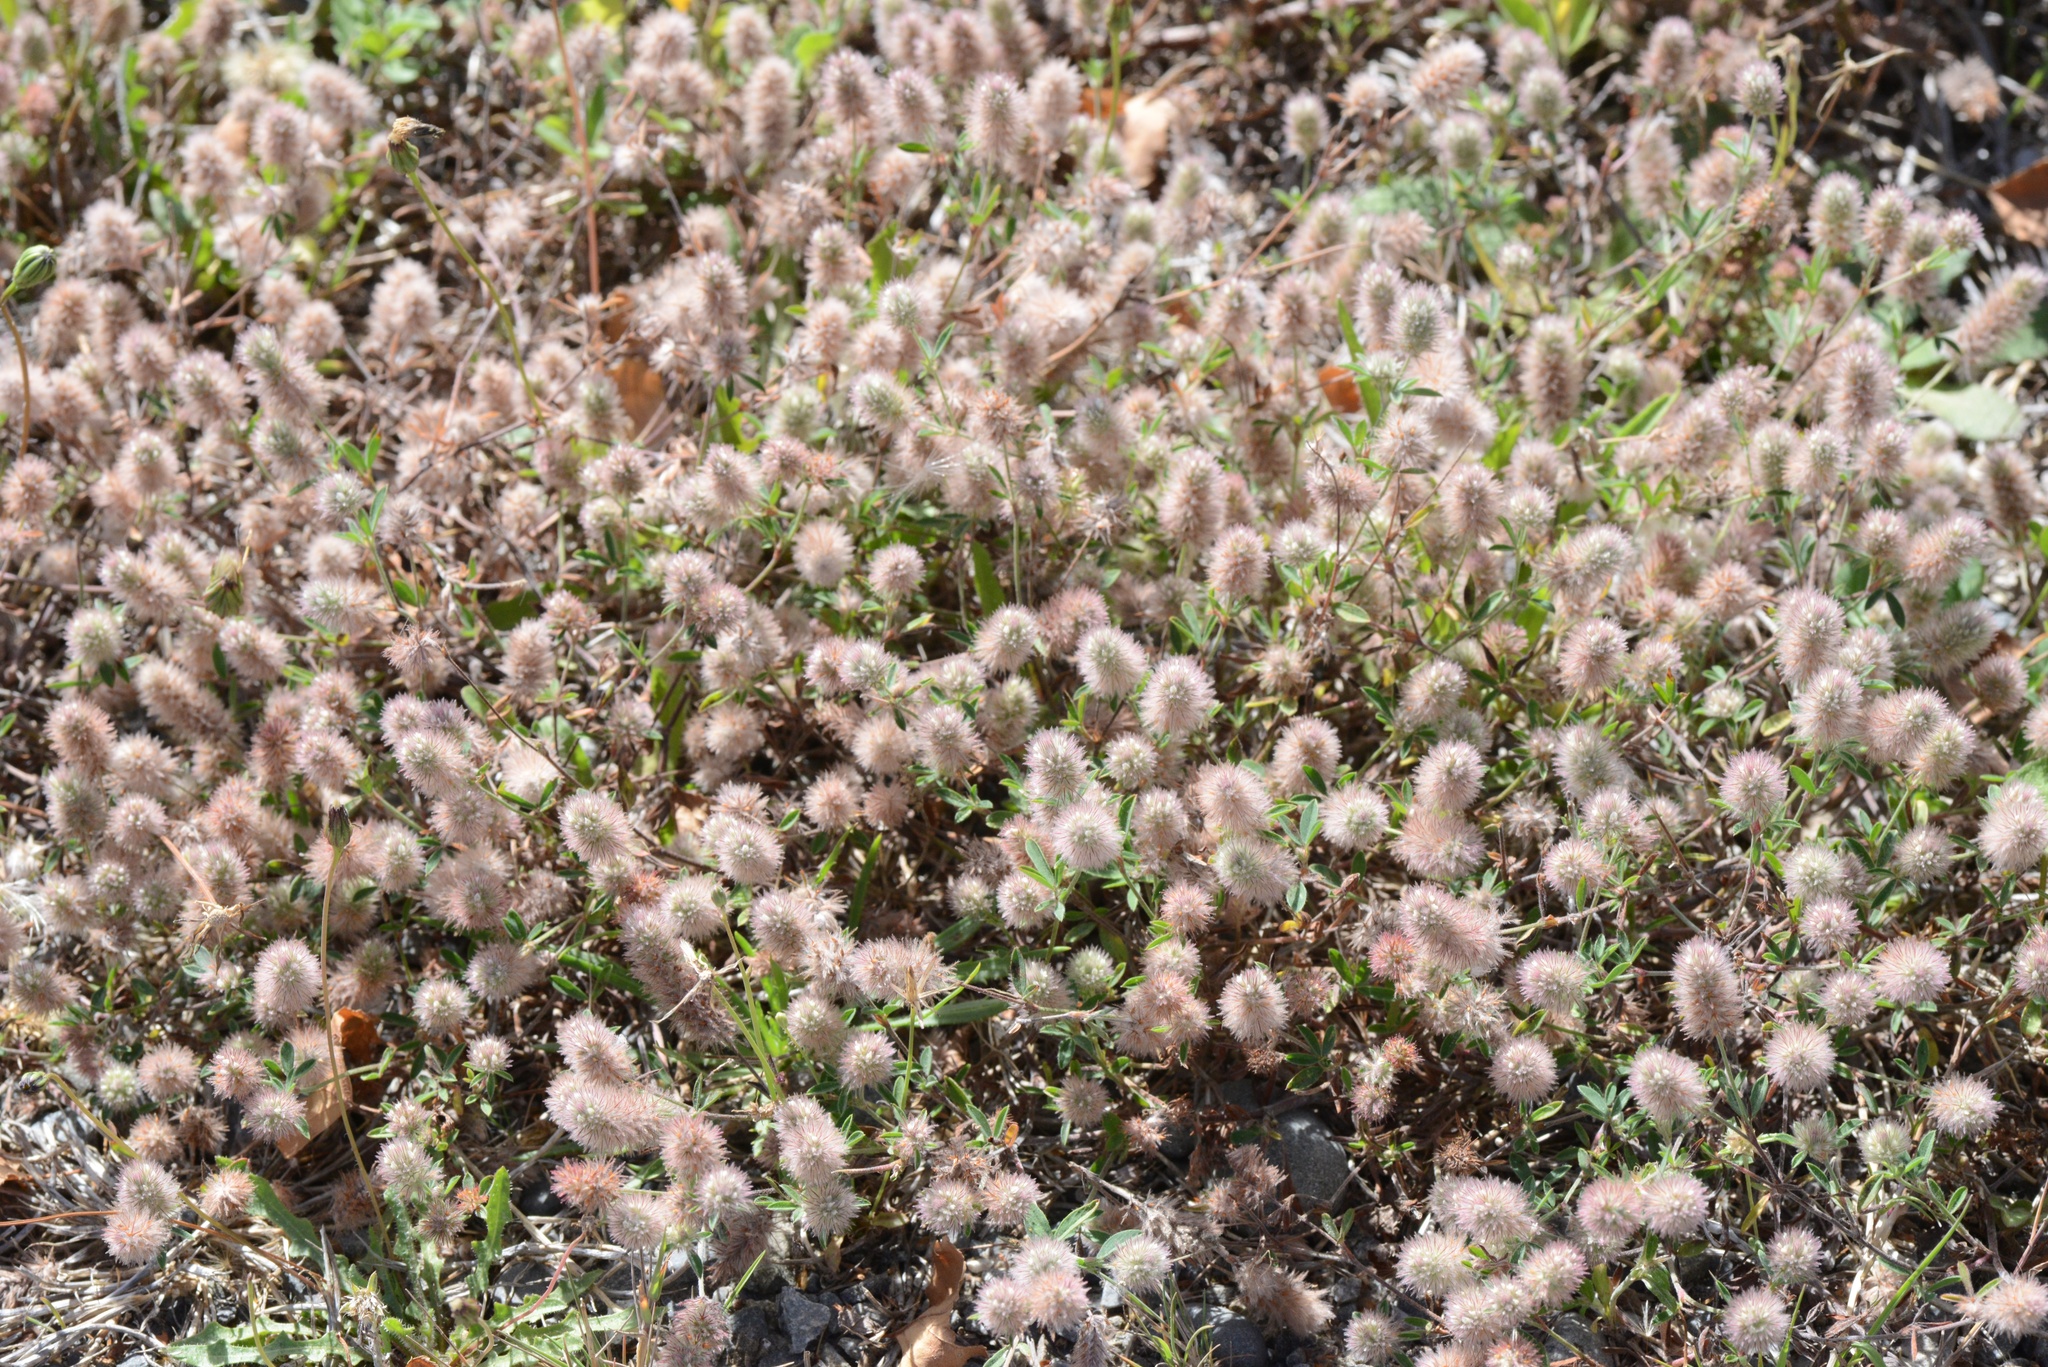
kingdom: Plantae
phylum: Tracheophyta
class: Magnoliopsida
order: Fabales
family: Fabaceae
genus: Trifolium
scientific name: Trifolium arvense
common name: Hare's-foot clover
